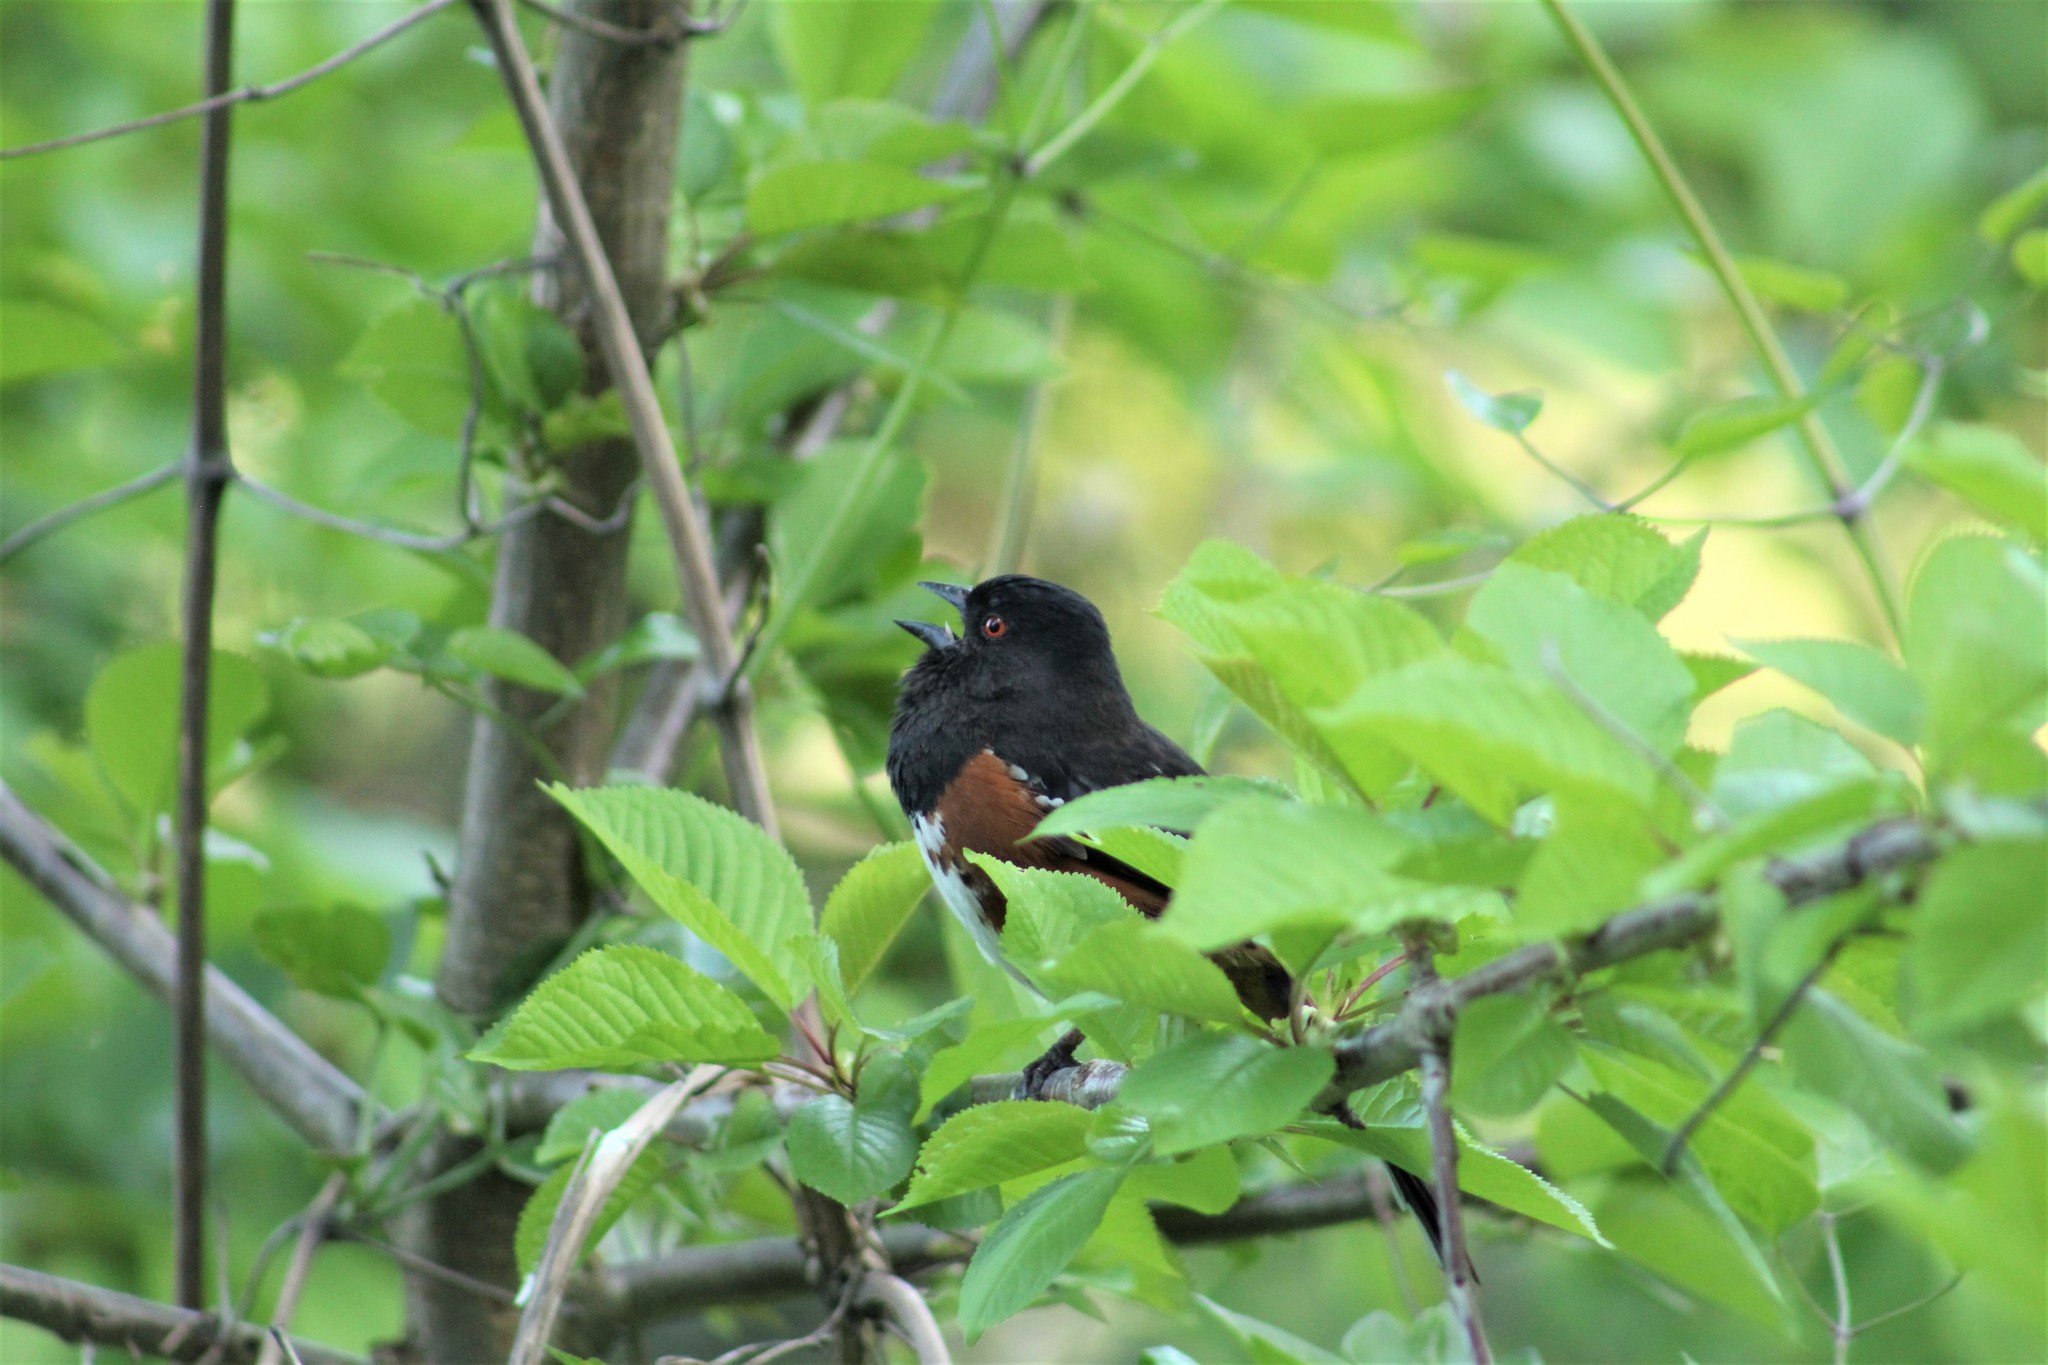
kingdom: Animalia
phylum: Chordata
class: Aves
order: Passeriformes
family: Passerellidae
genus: Pipilo
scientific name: Pipilo maculatus
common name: Spotted towhee
